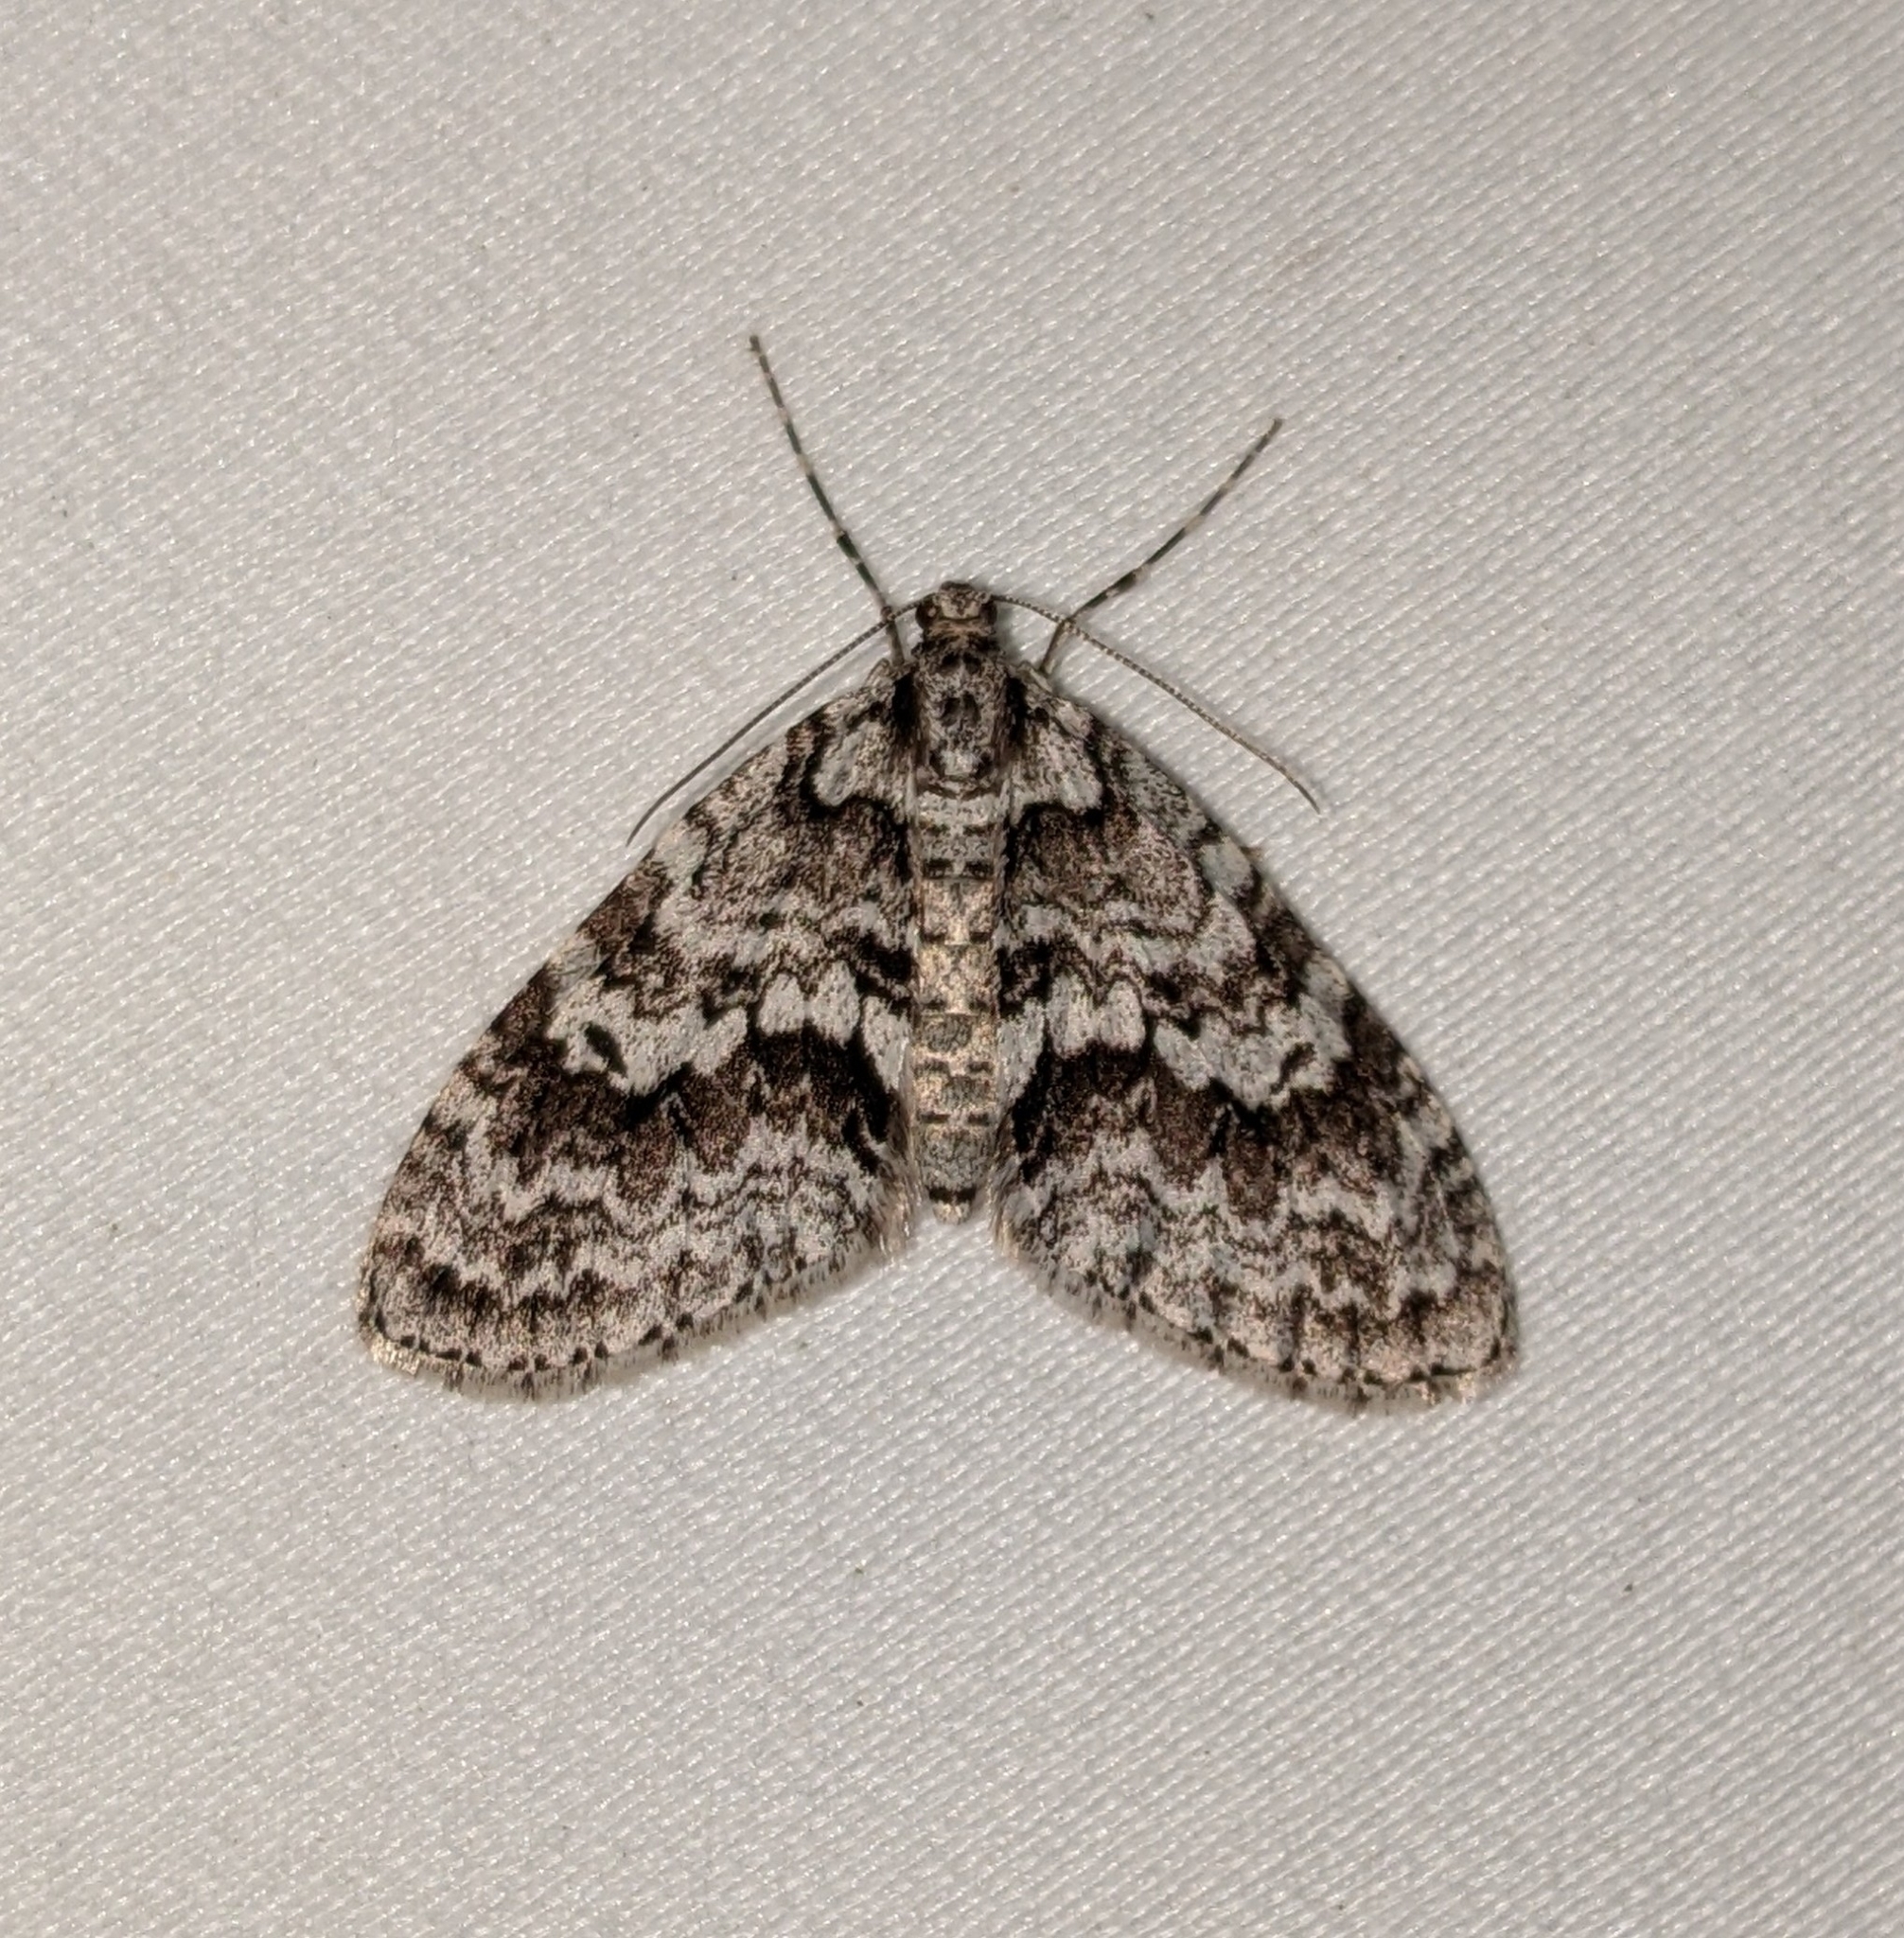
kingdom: Animalia
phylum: Arthropoda
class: Insecta
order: Lepidoptera
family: Geometridae
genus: Cladara
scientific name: Cladara limitaria
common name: Mottled gray carpet
